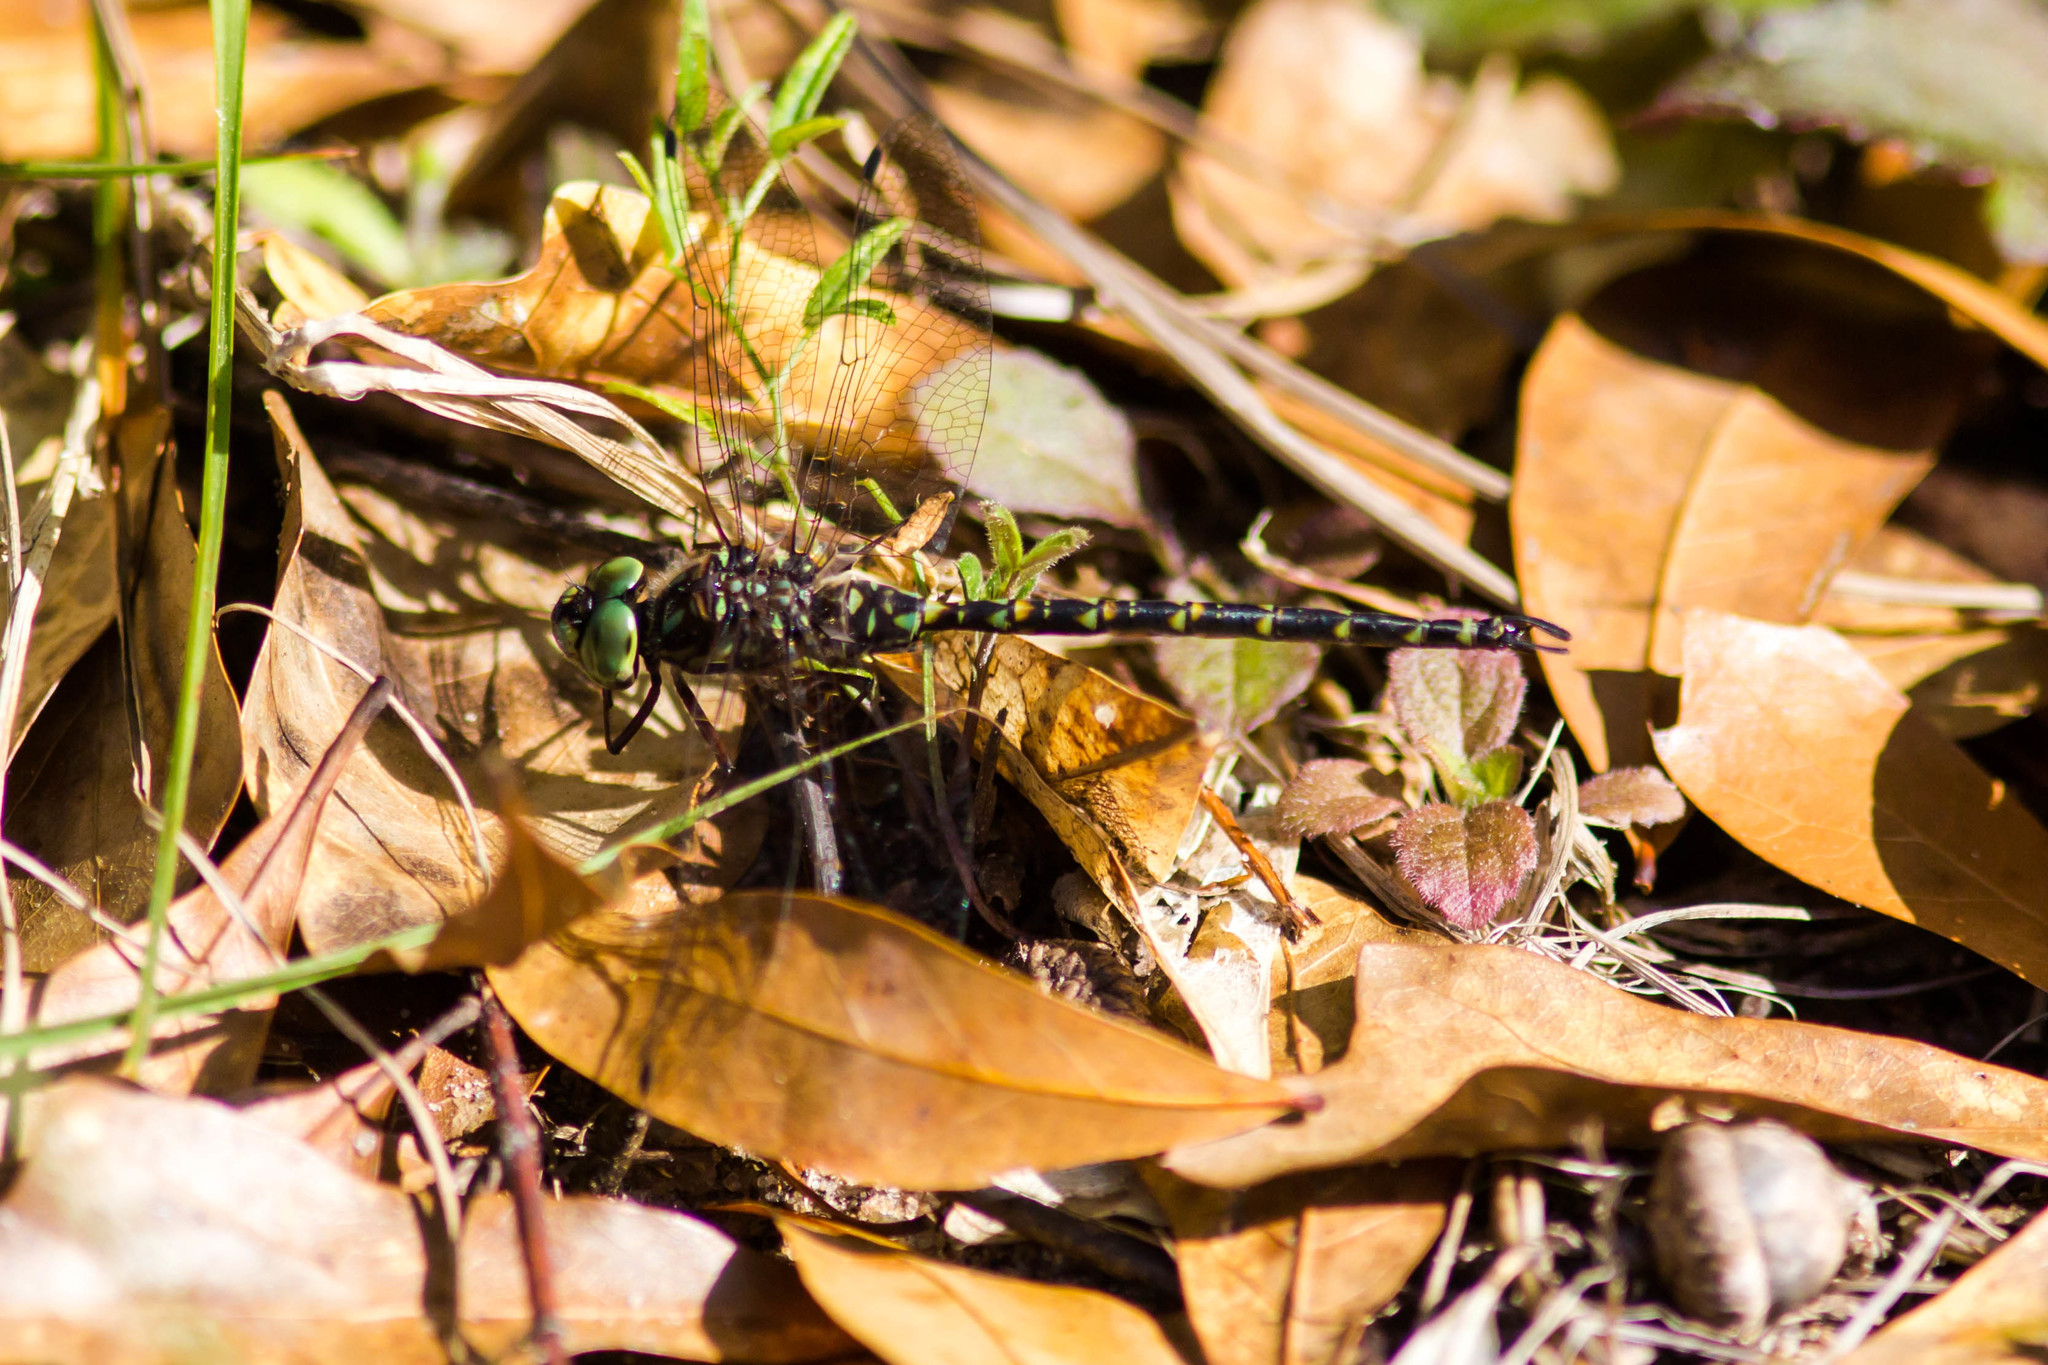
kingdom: Animalia
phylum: Arthropoda
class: Insecta
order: Odonata
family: Aeshnidae
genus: Gomphaeschna
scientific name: Gomphaeschna furcillata
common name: Harlequin darner
